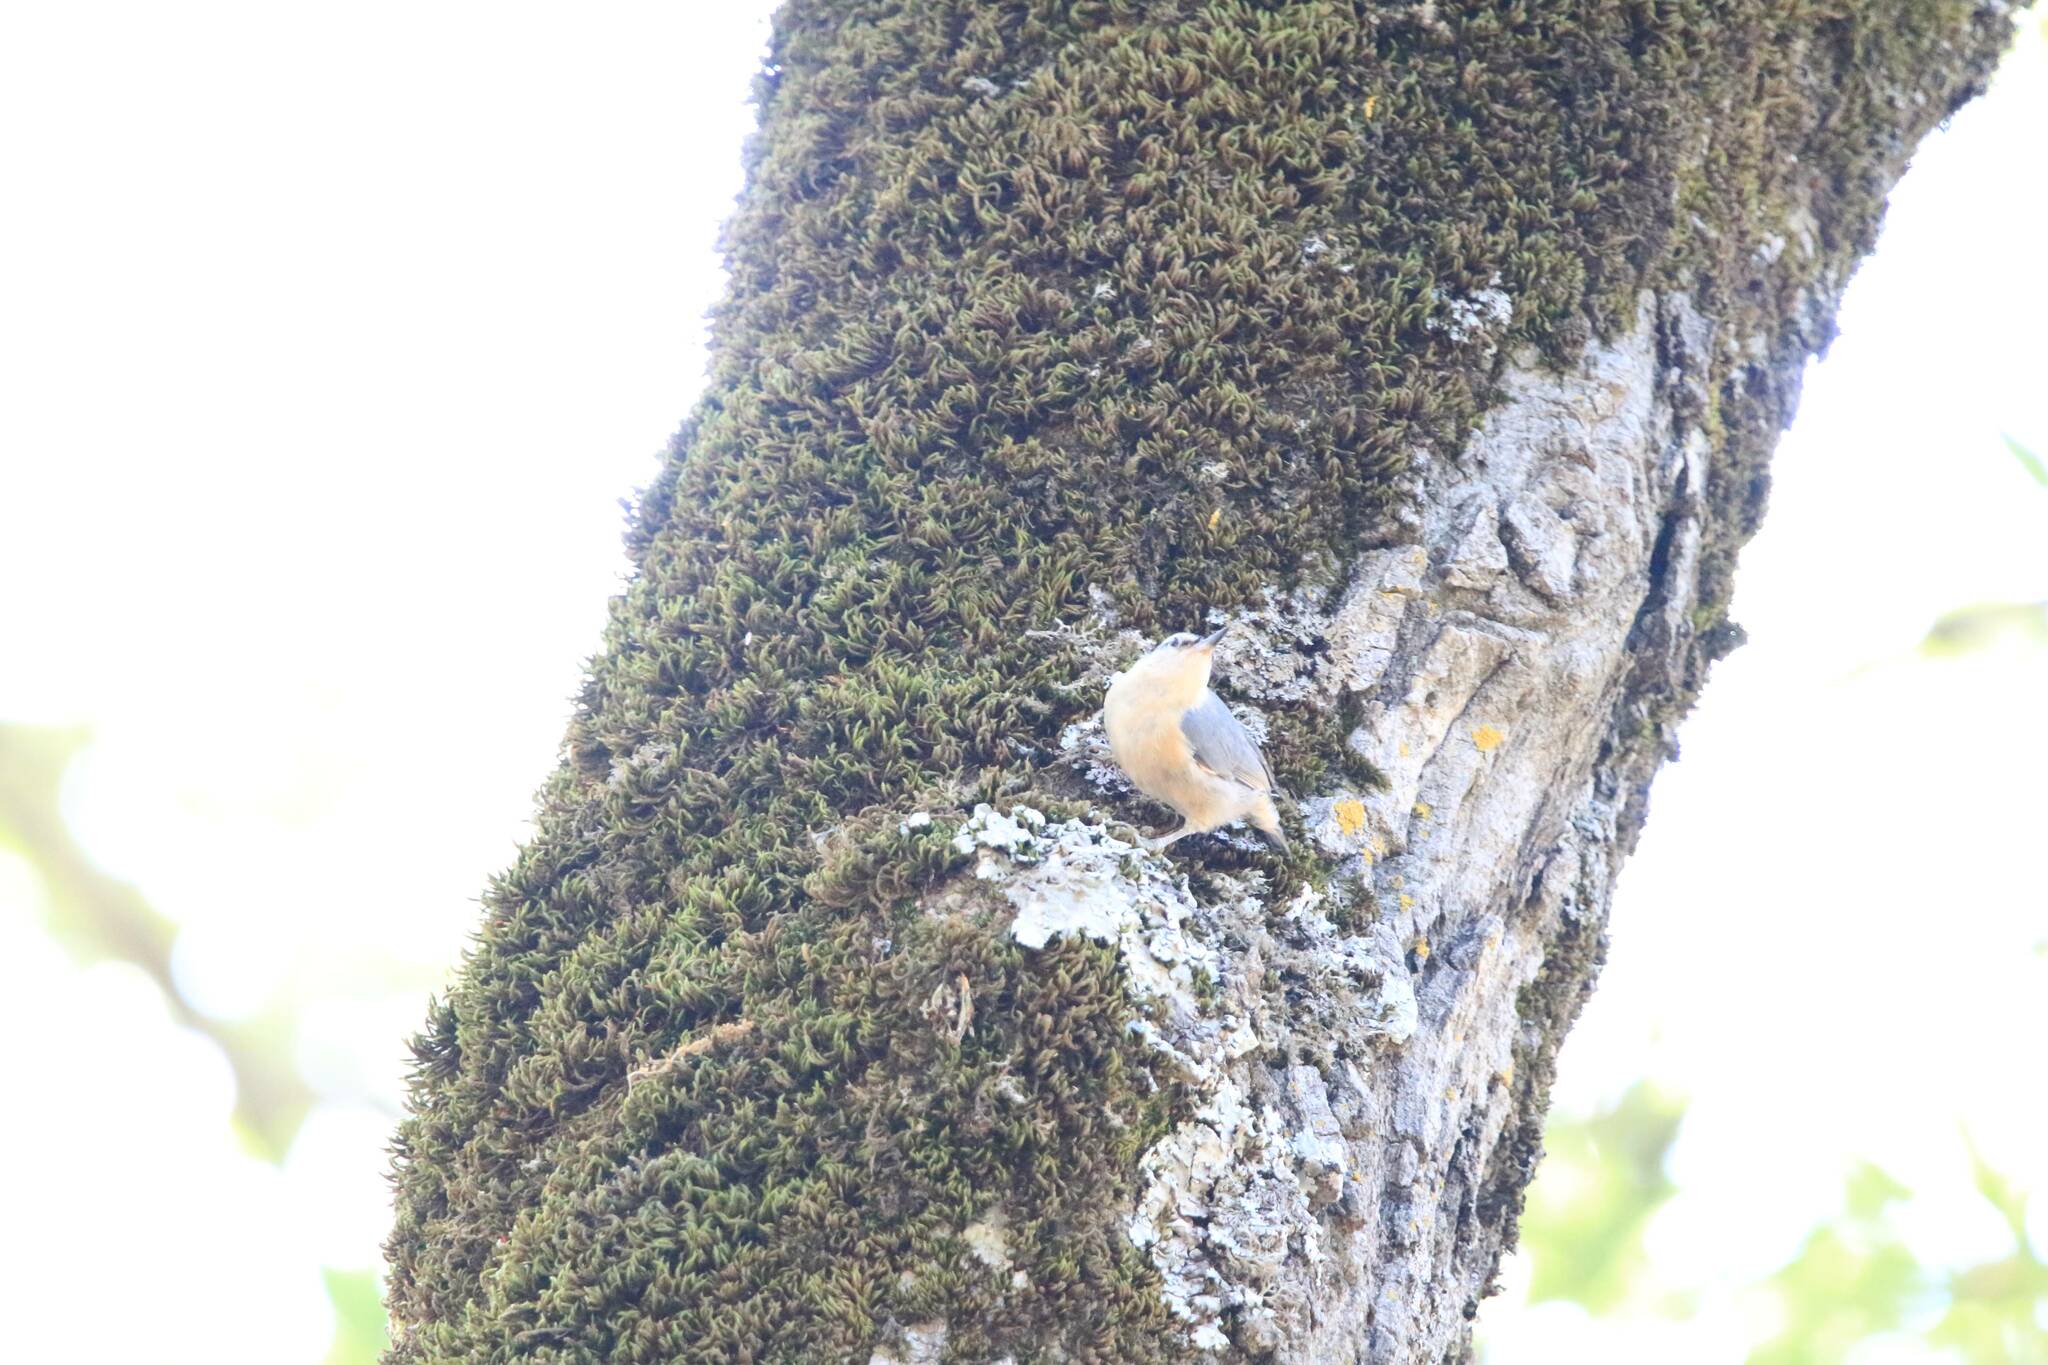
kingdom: Animalia
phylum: Chordata
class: Aves
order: Passeriformes
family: Sittidae
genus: Sitta
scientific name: Sitta ledanti
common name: Algerian nuthatch
